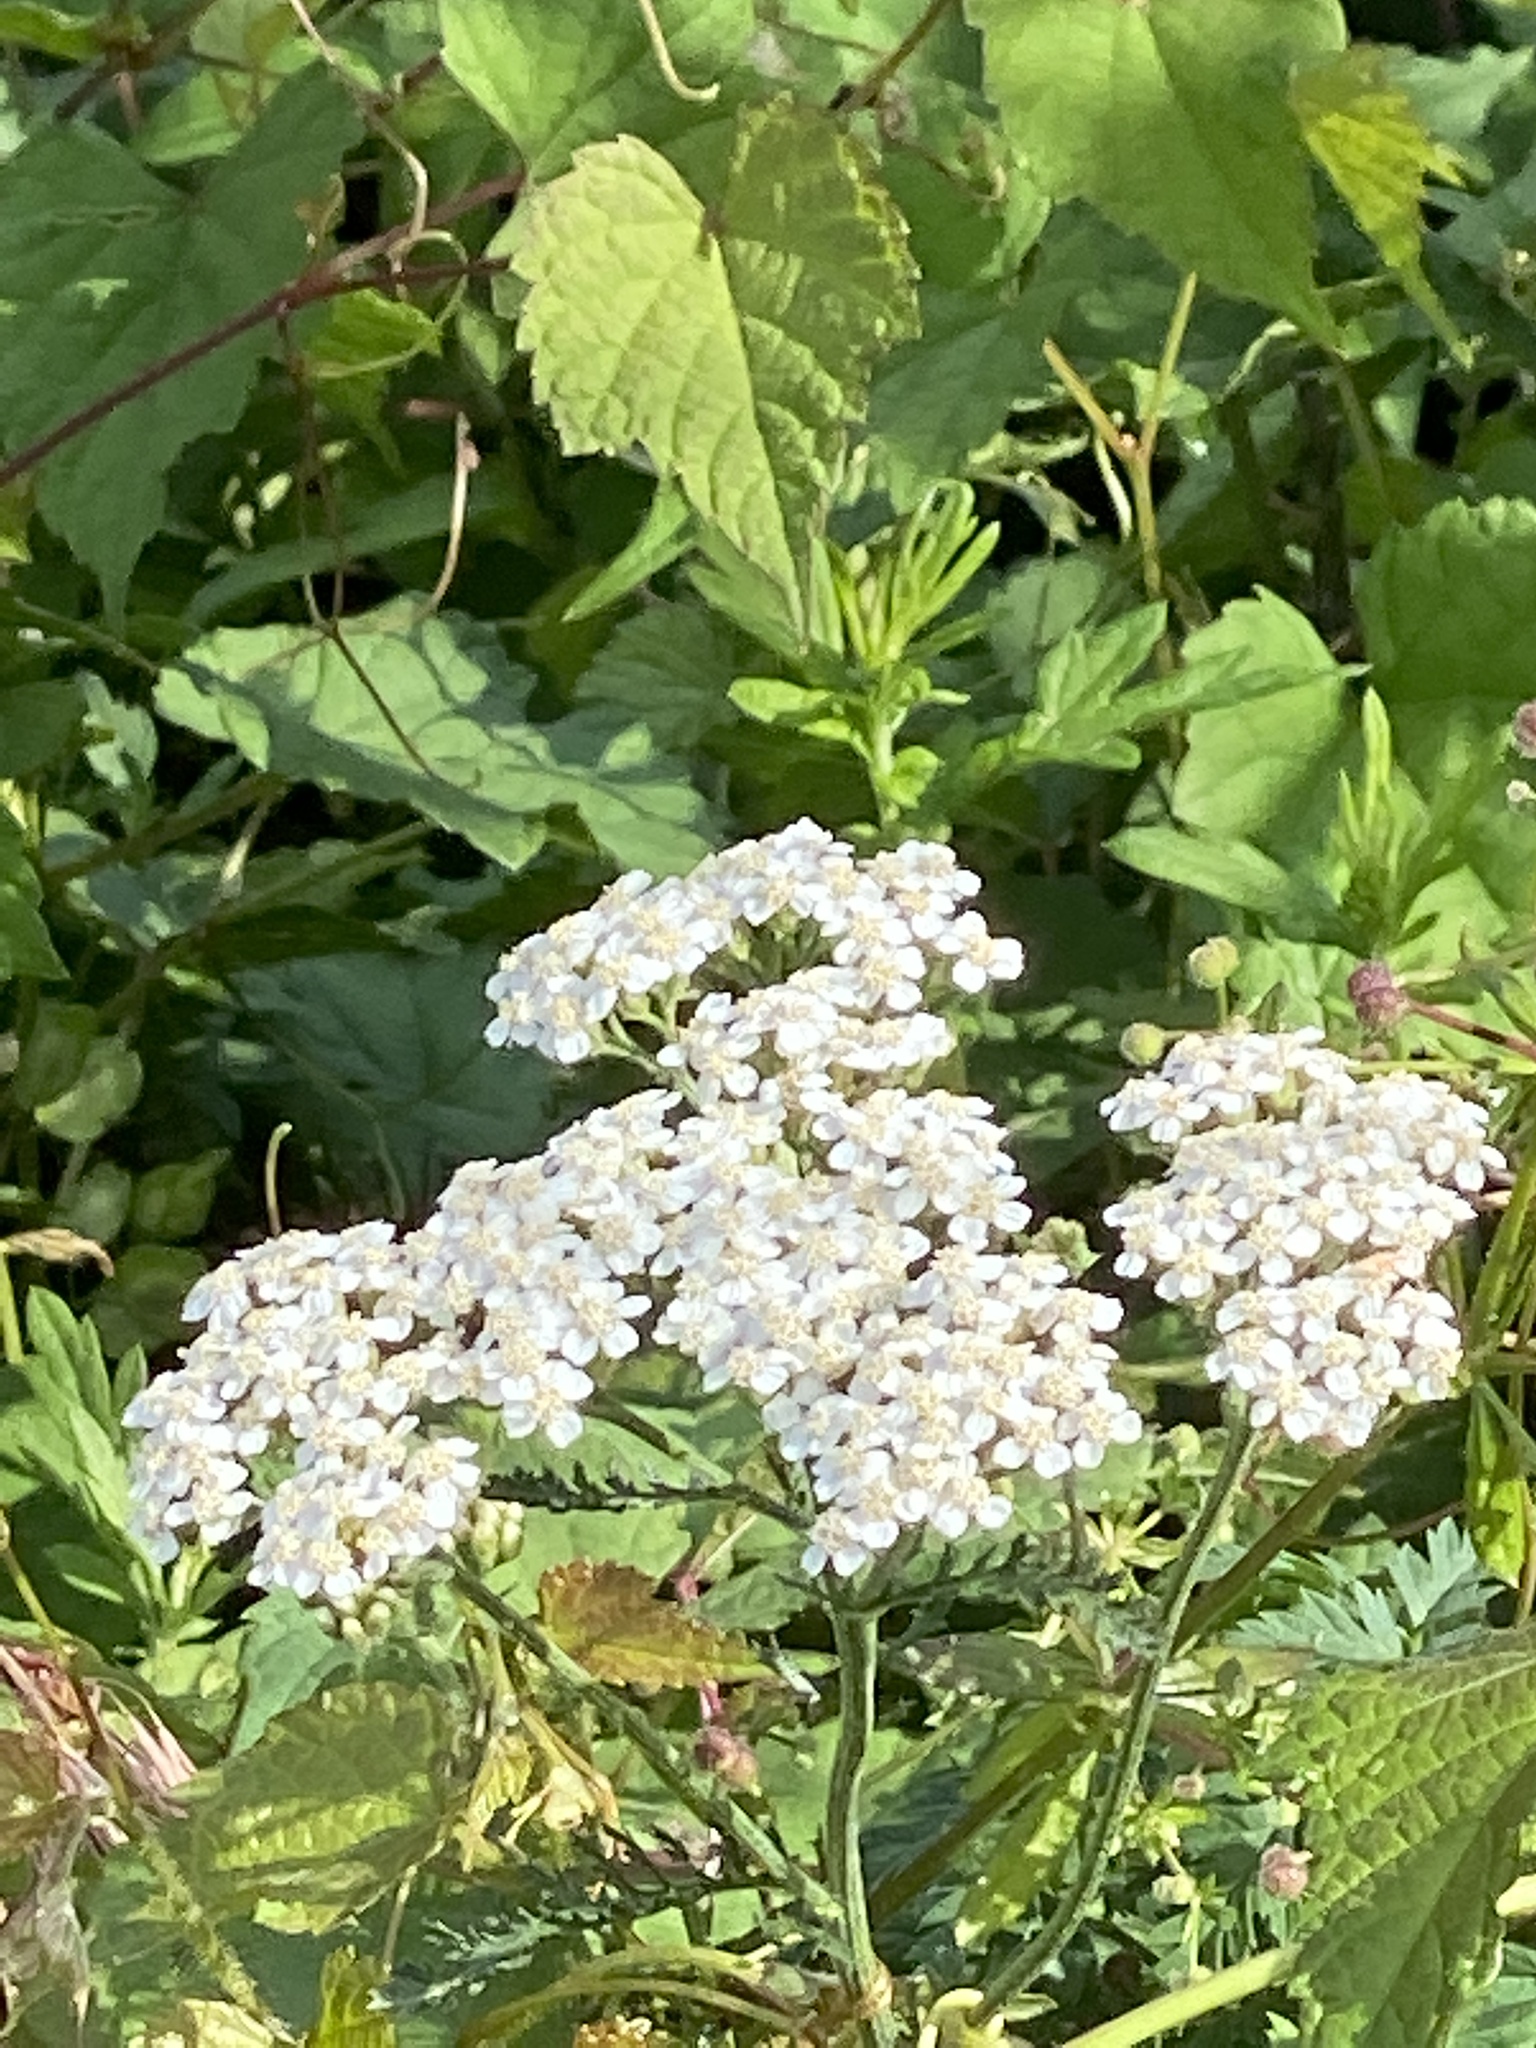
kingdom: Plantae
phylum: Tracheophyta
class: Magnoliopsida
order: Asterales
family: Asteraceae
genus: Achillea
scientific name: Achillea millefolium
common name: Yarrow
